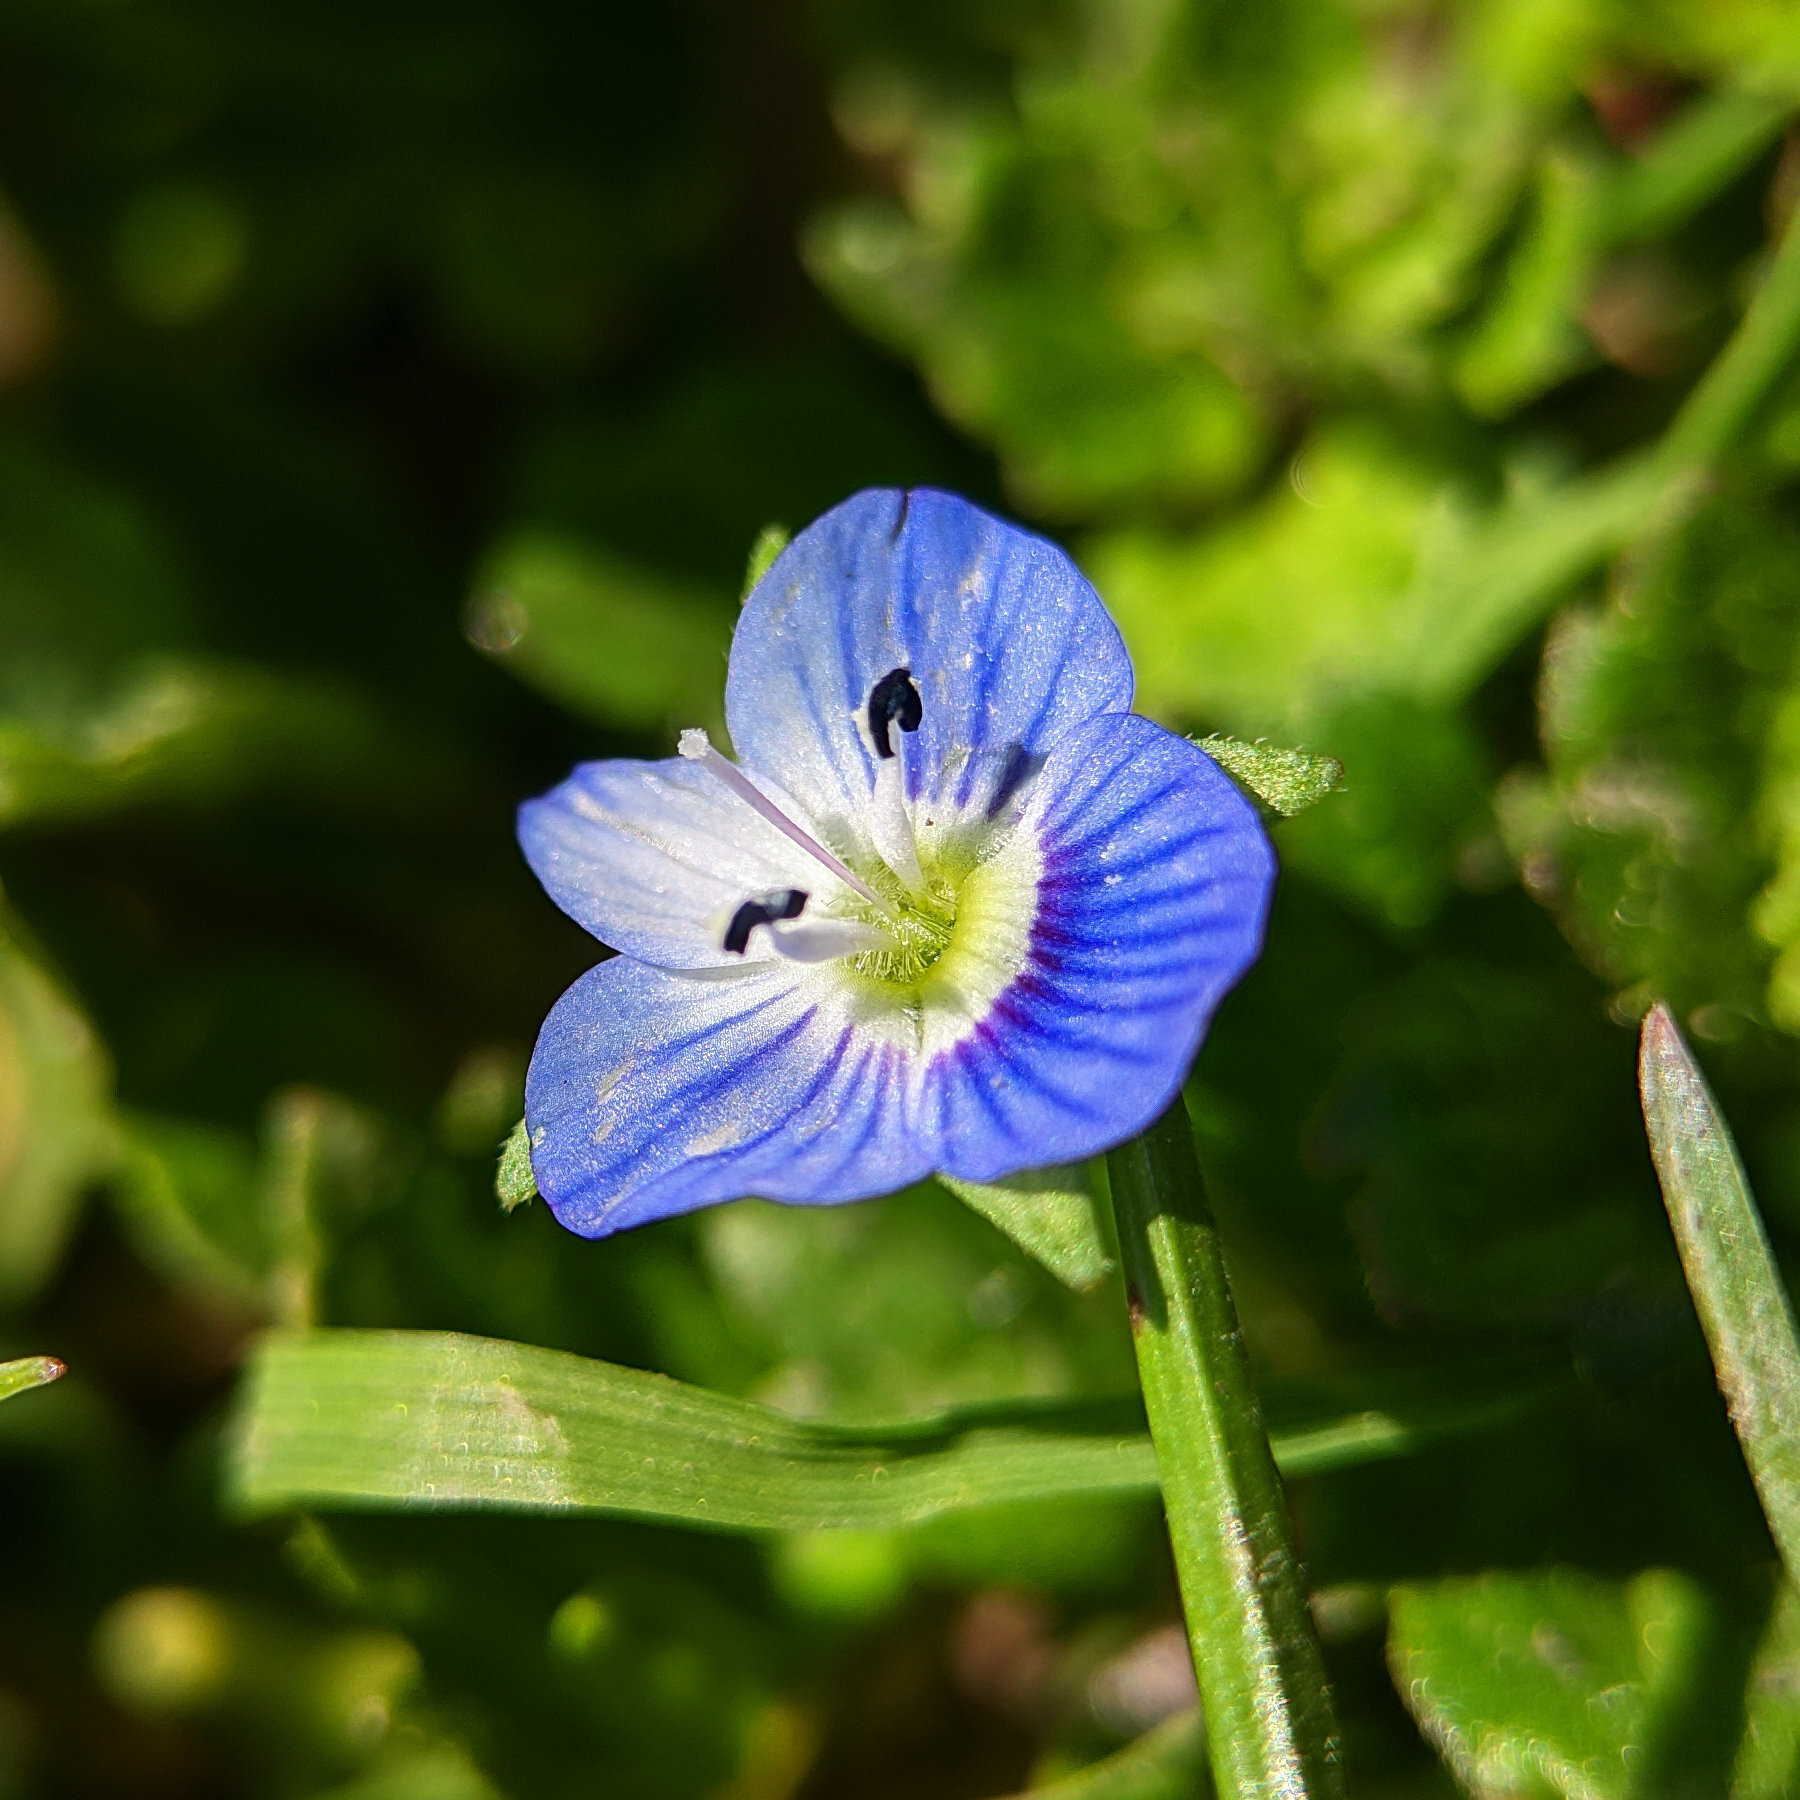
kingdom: Plantae
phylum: Tracheophyta
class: Magnoliopsida
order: Lamiales
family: Plantaginaceae
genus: Veronica
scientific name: Veronica persica
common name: Common field-speedwell
